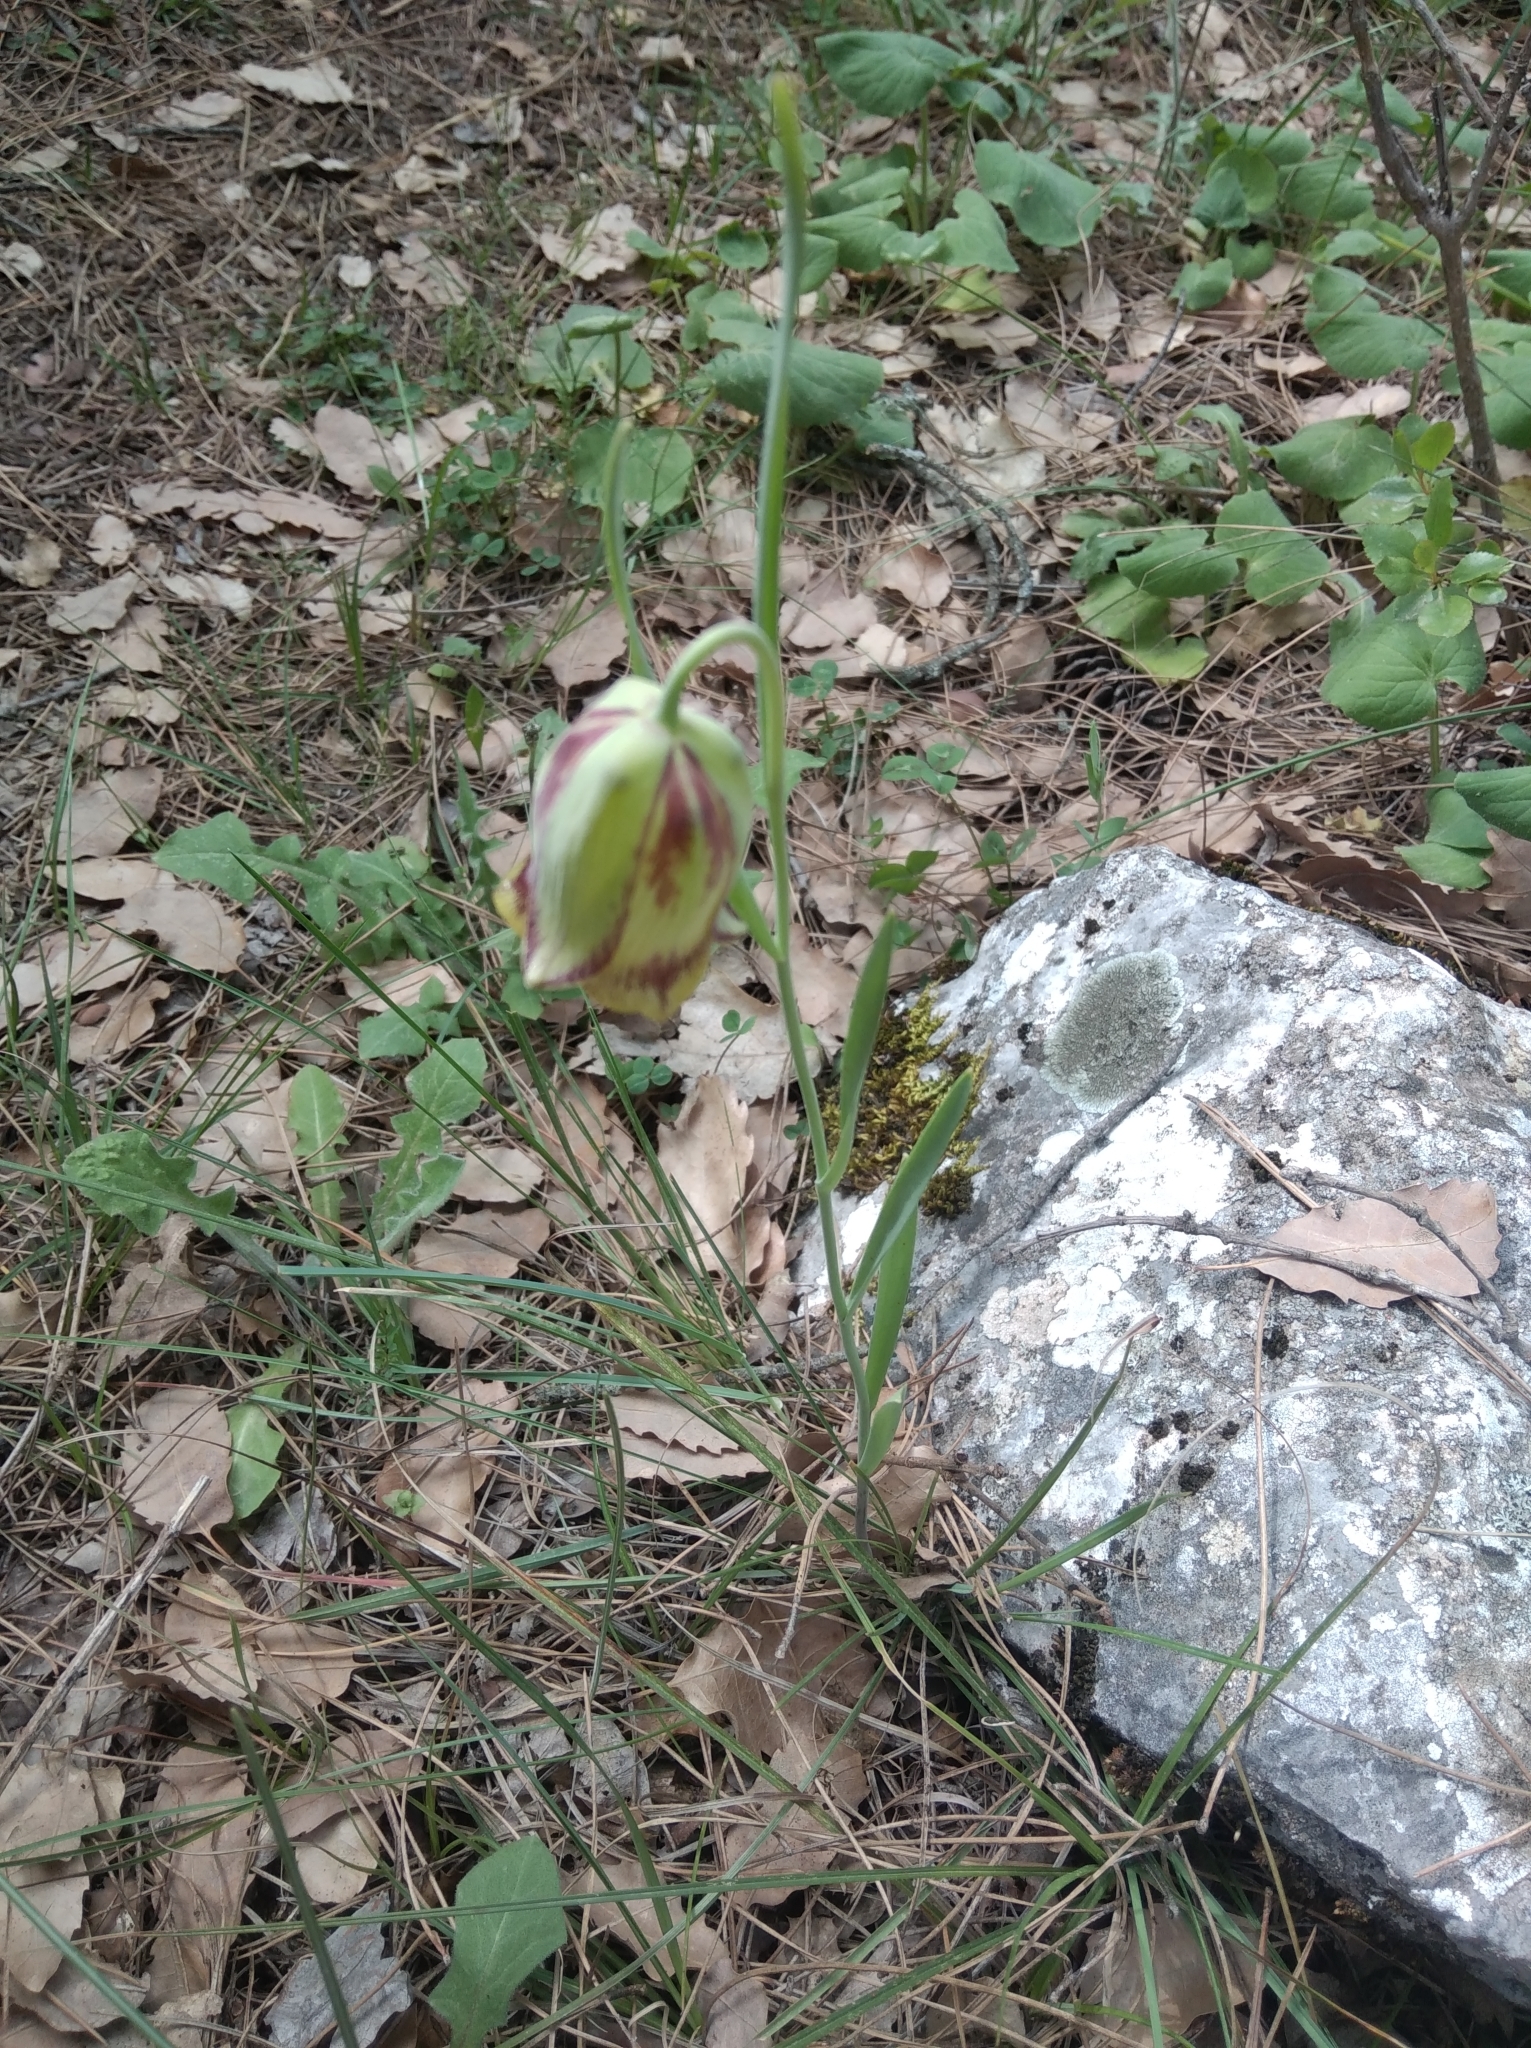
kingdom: Plantae
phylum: Tracheophyta
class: Liliopsida
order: Liliales
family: Liliaceae
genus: Fritillaria
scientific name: Fritillaria acmopetala
